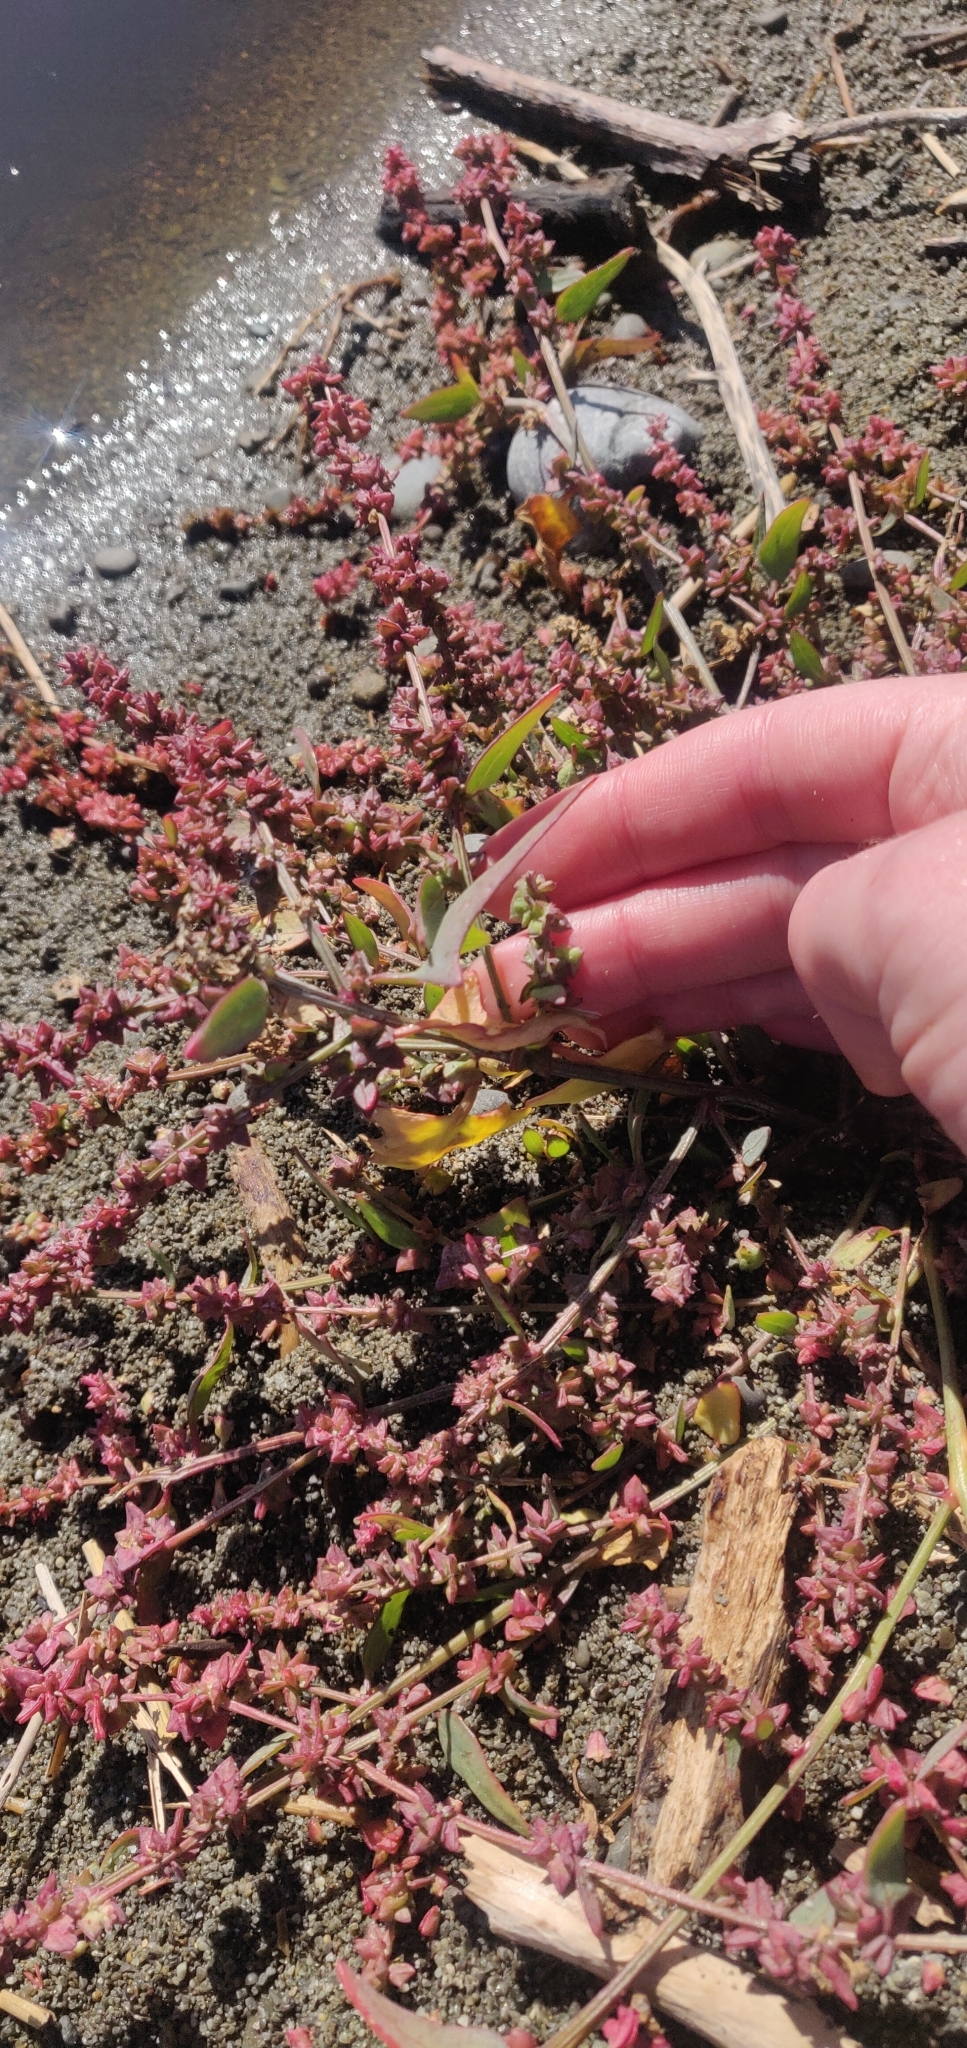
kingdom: Plantae
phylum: Tracheophyta
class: Magnoliopsida
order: Caryophyllales
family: Amaranthaceae
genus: Atriplex
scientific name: Atriplex prostrata
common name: Spear-leaved orache
